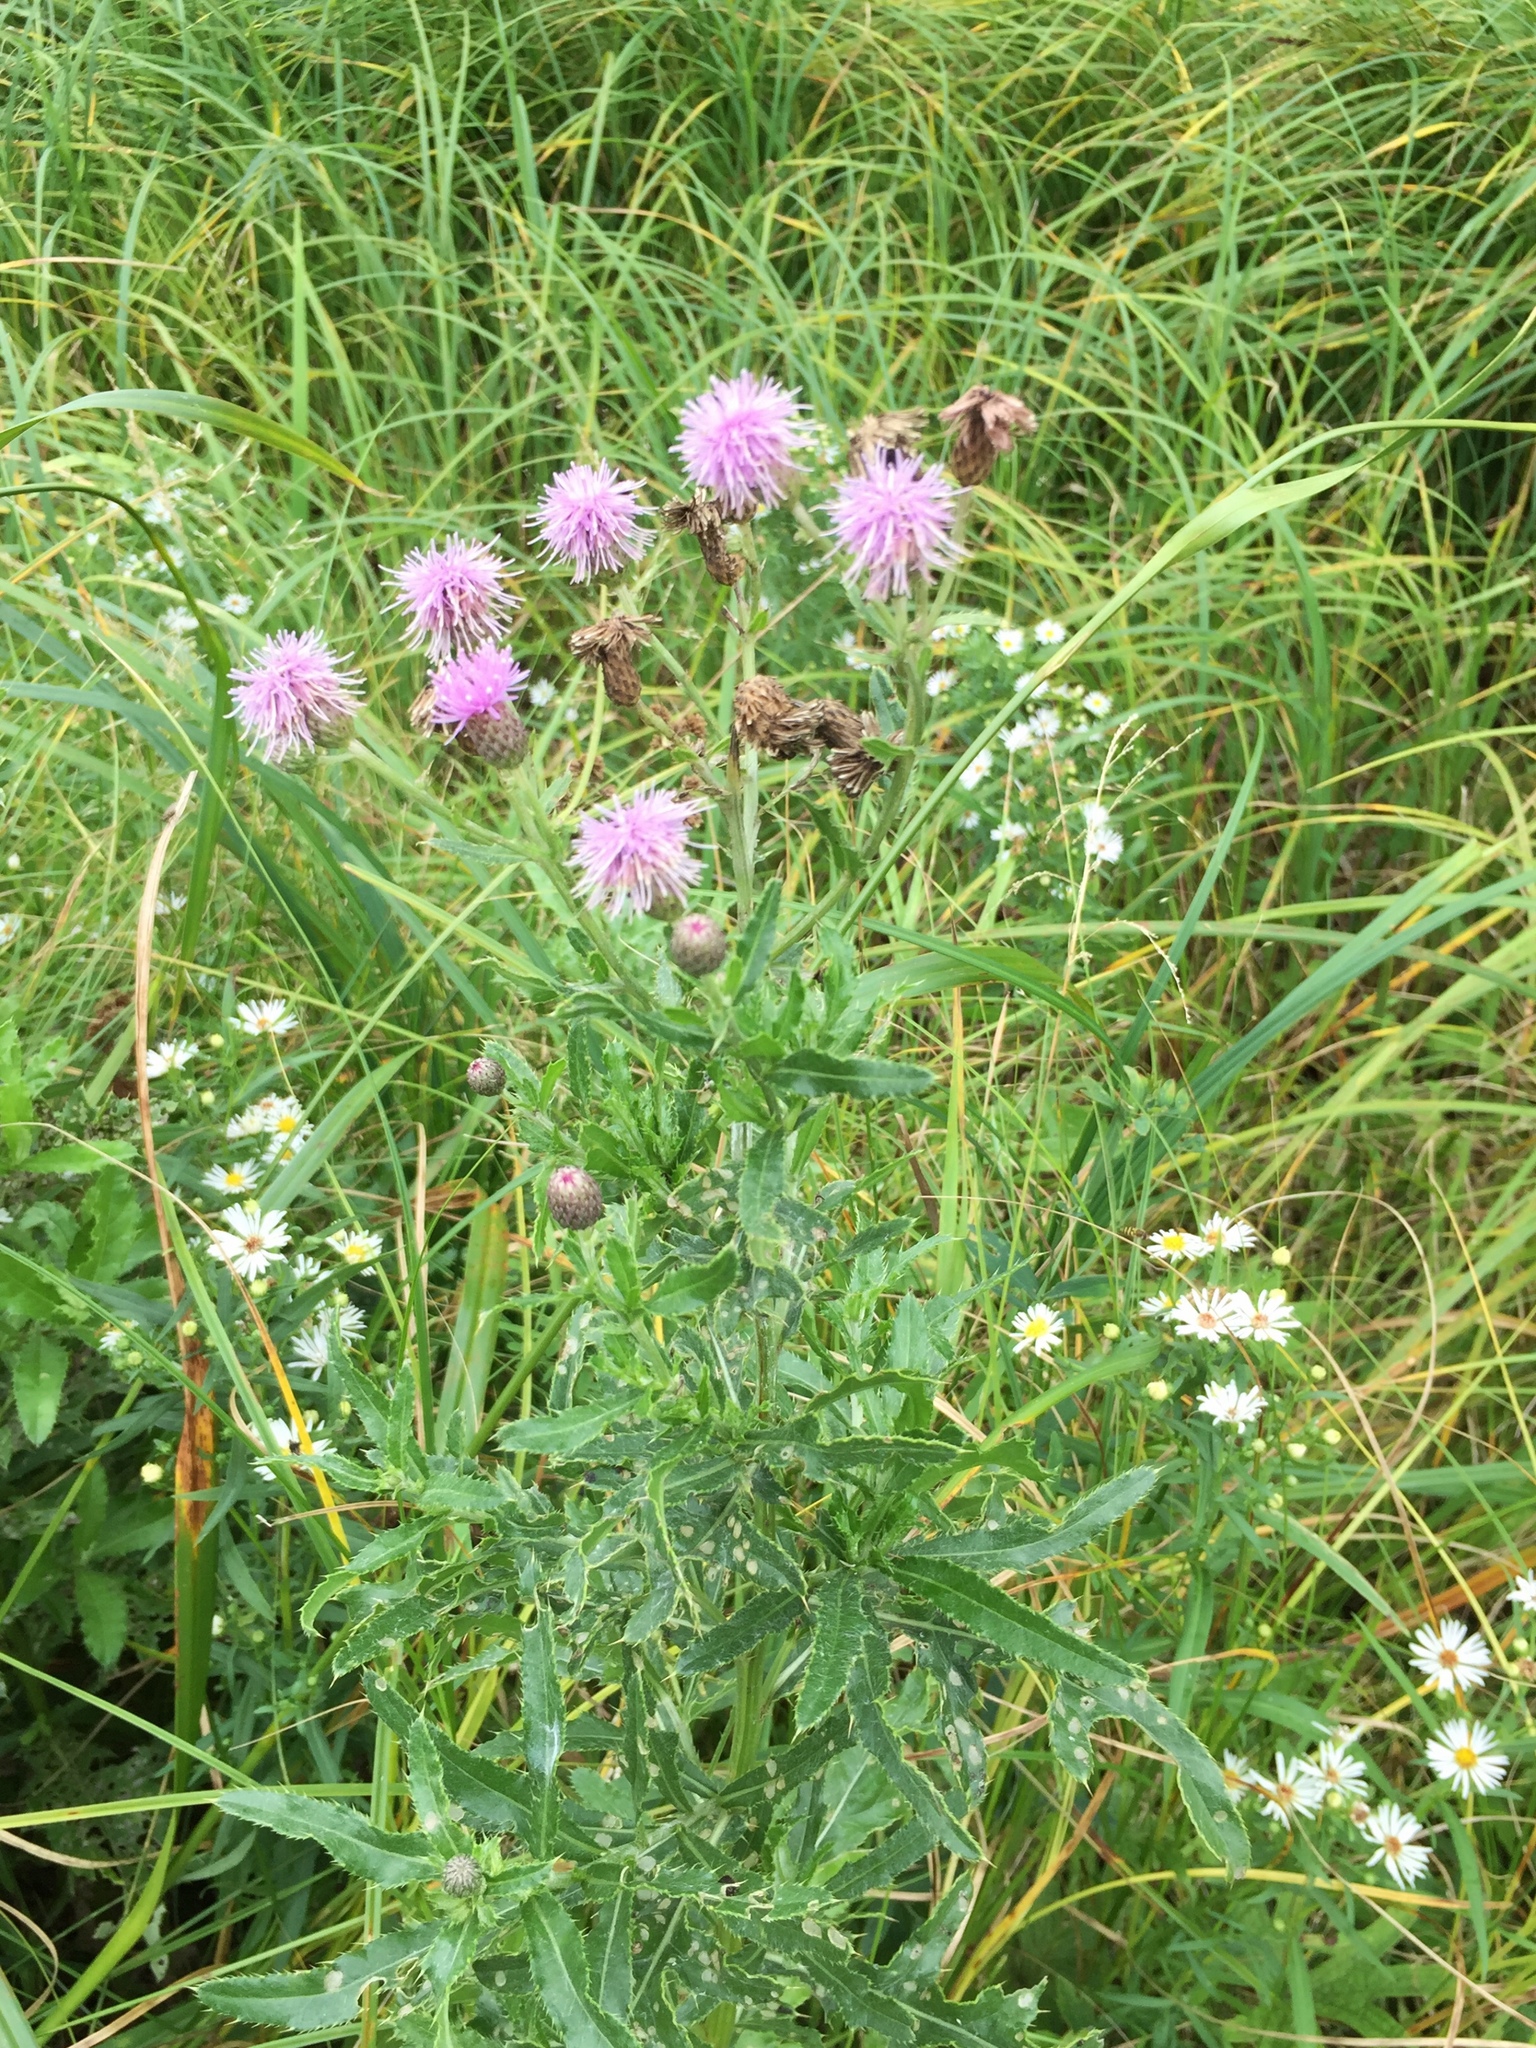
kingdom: Plantae
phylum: Tracheophyta
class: Magnoliopsida
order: Asterales
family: Asteraceae
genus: Cirsium
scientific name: Cirsium arvense
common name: Creeping thistle
